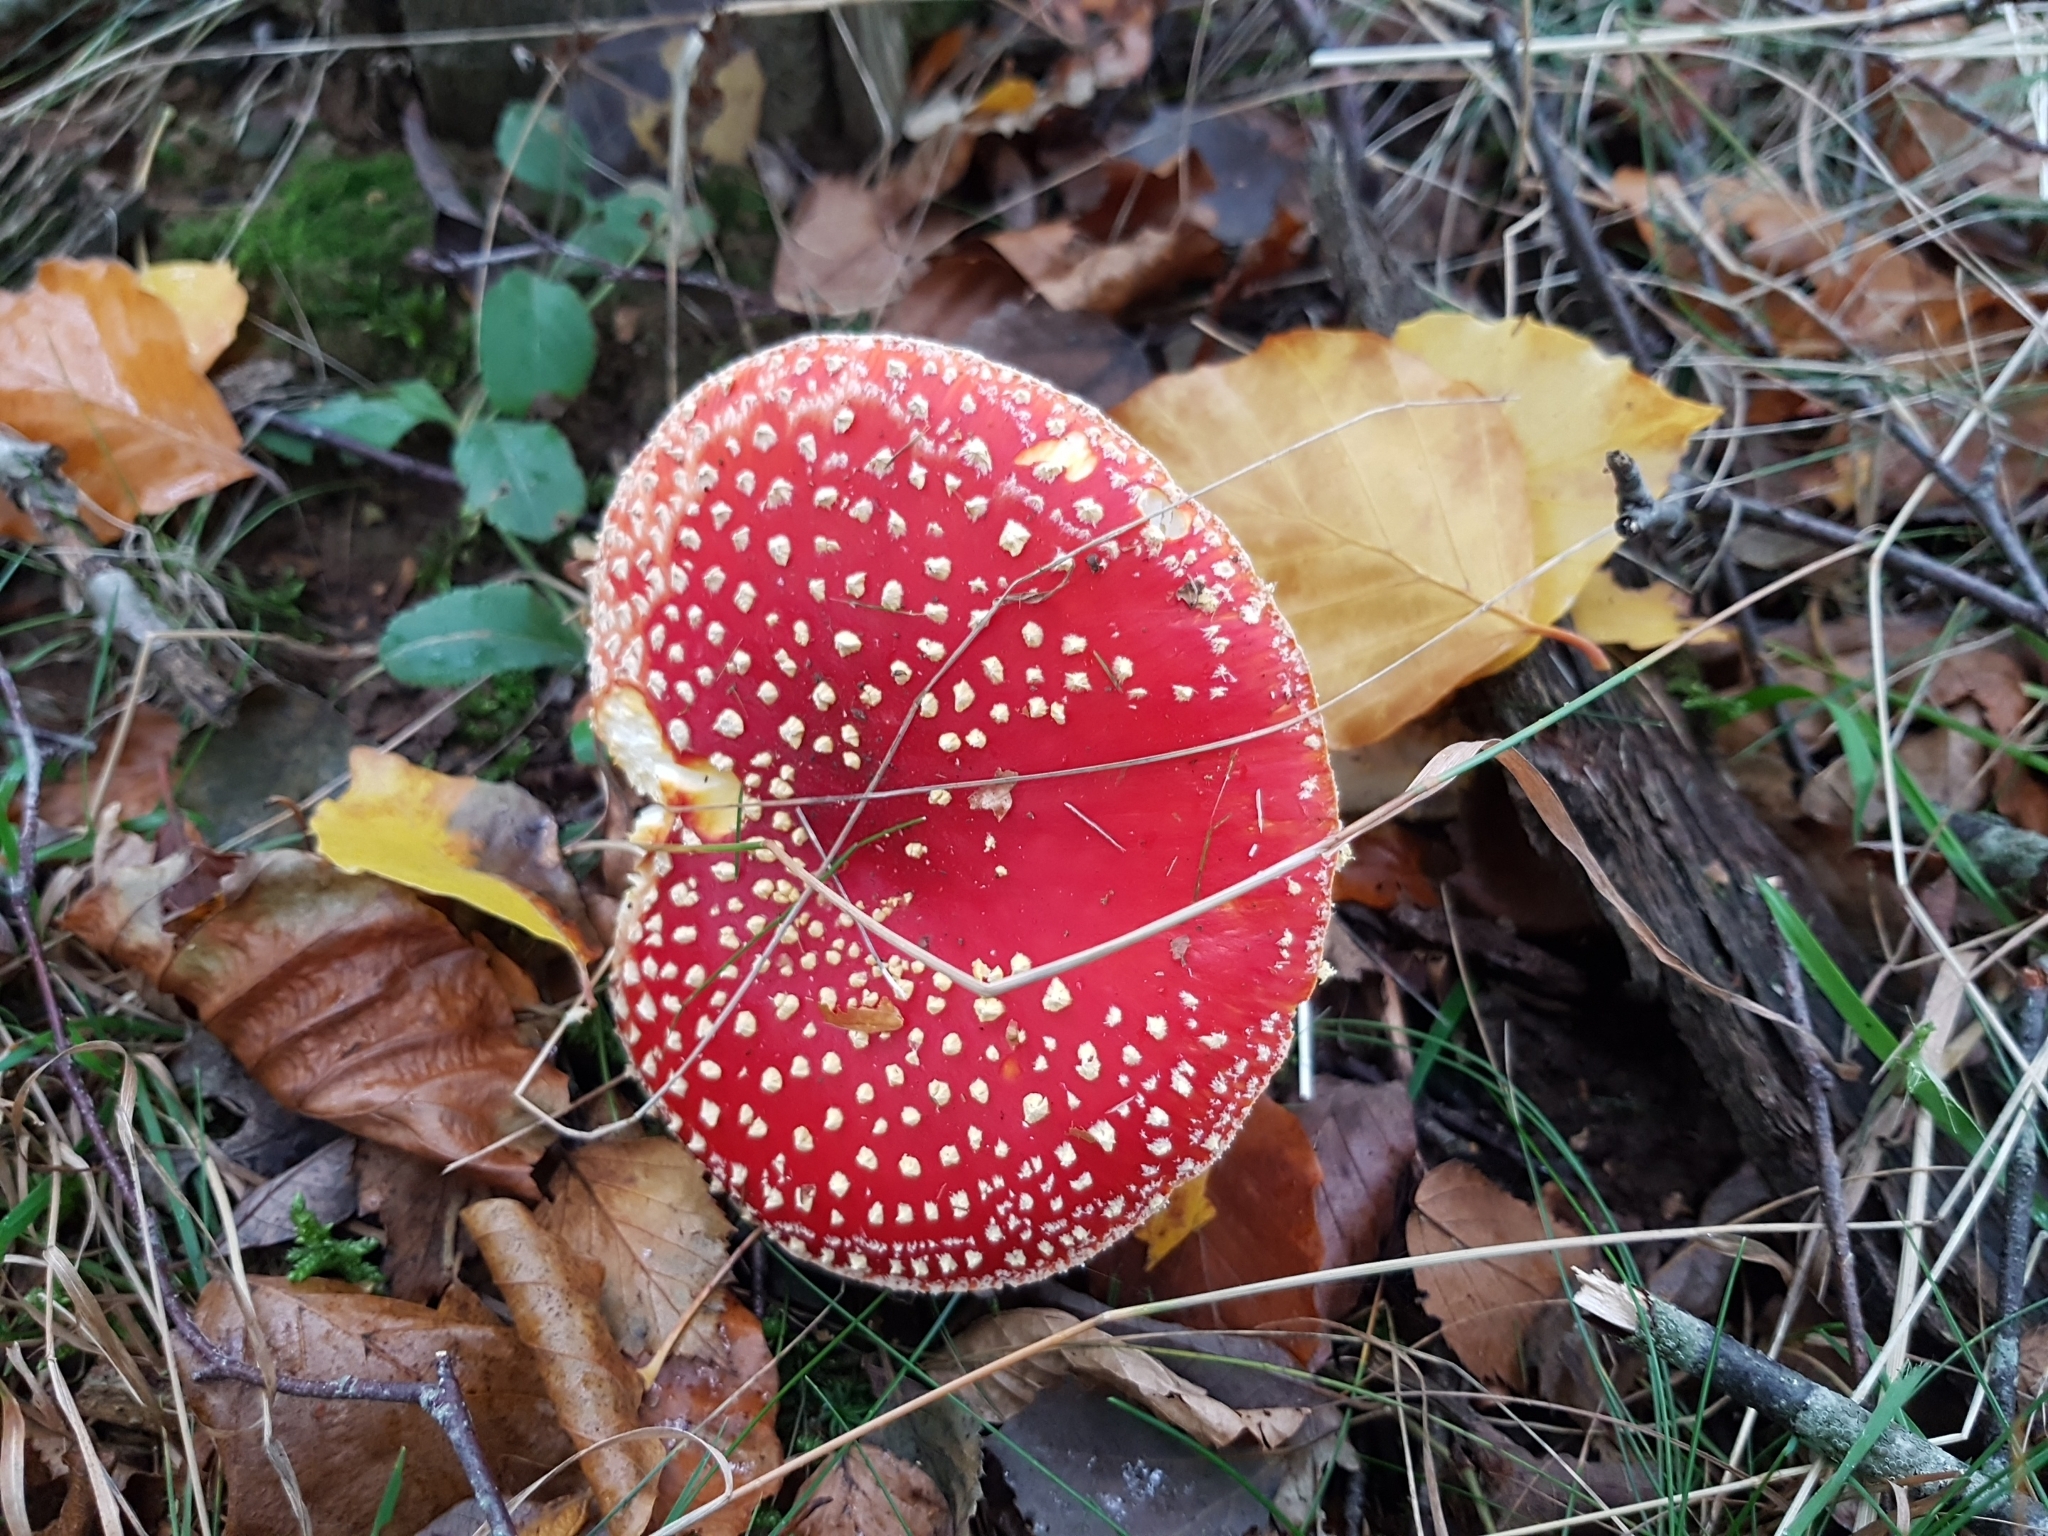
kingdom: Fungi
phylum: Basidiomycota
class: Agaricomycetes
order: Agaricales
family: Amanitaceae
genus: Amanita
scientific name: Amanita muscaria
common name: Fly agaric
